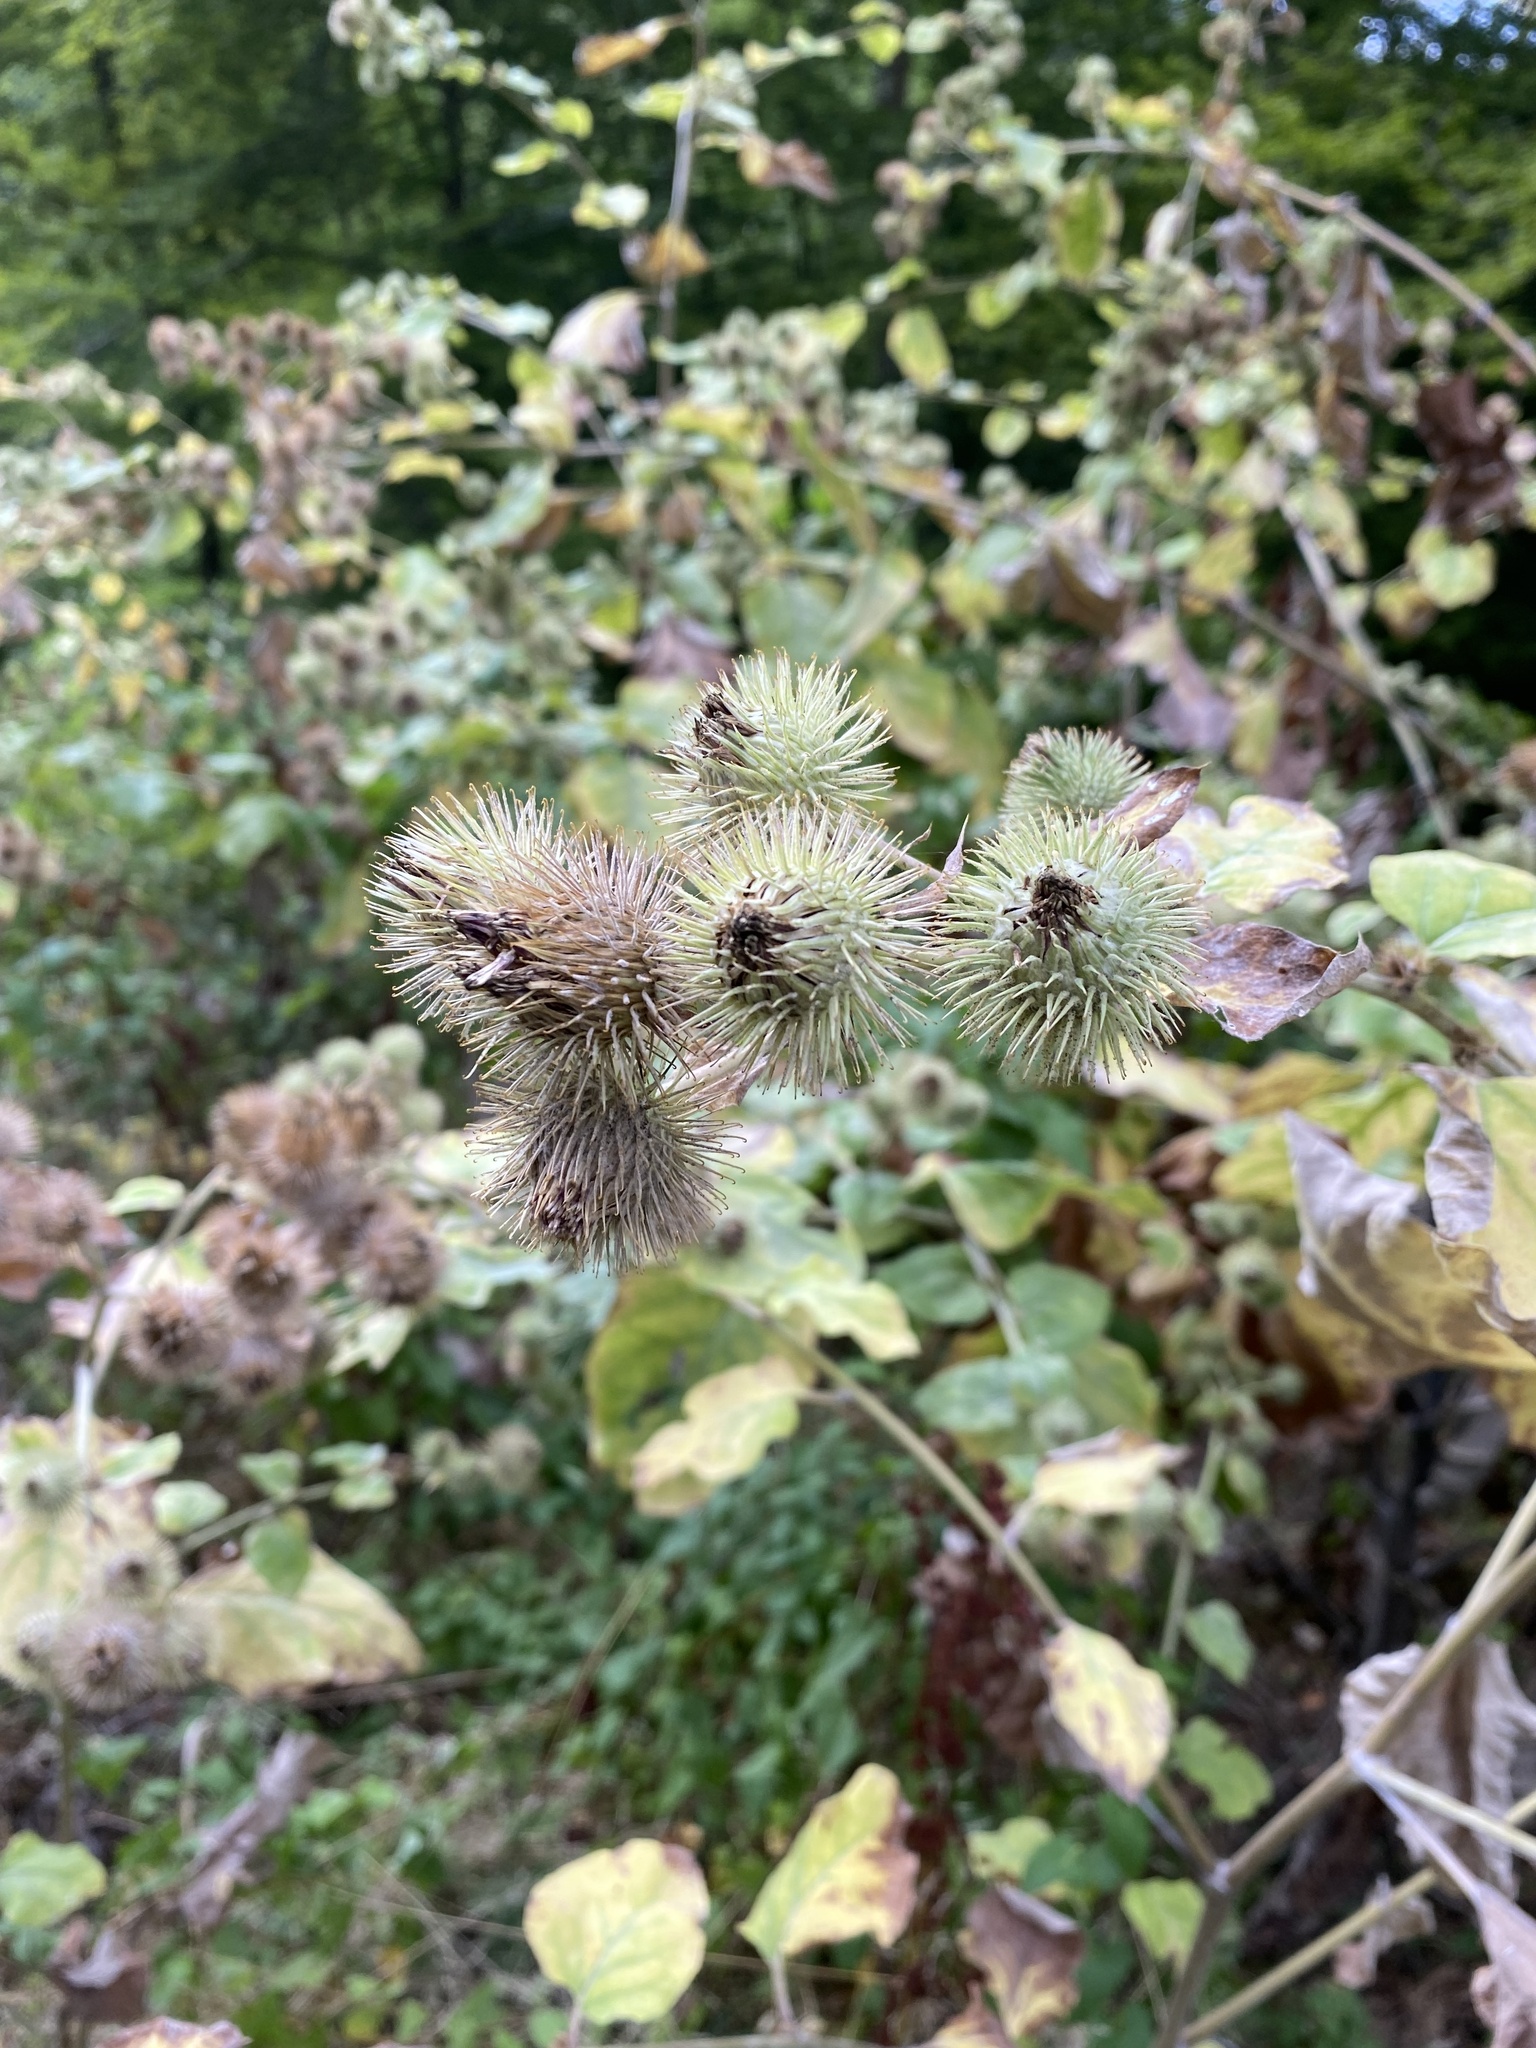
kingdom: Plantae
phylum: Tracheophyta
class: Magnoliopsida
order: Asterales
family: Asteraceae
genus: Arctium
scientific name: Arctium lappa
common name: Greater burdock
